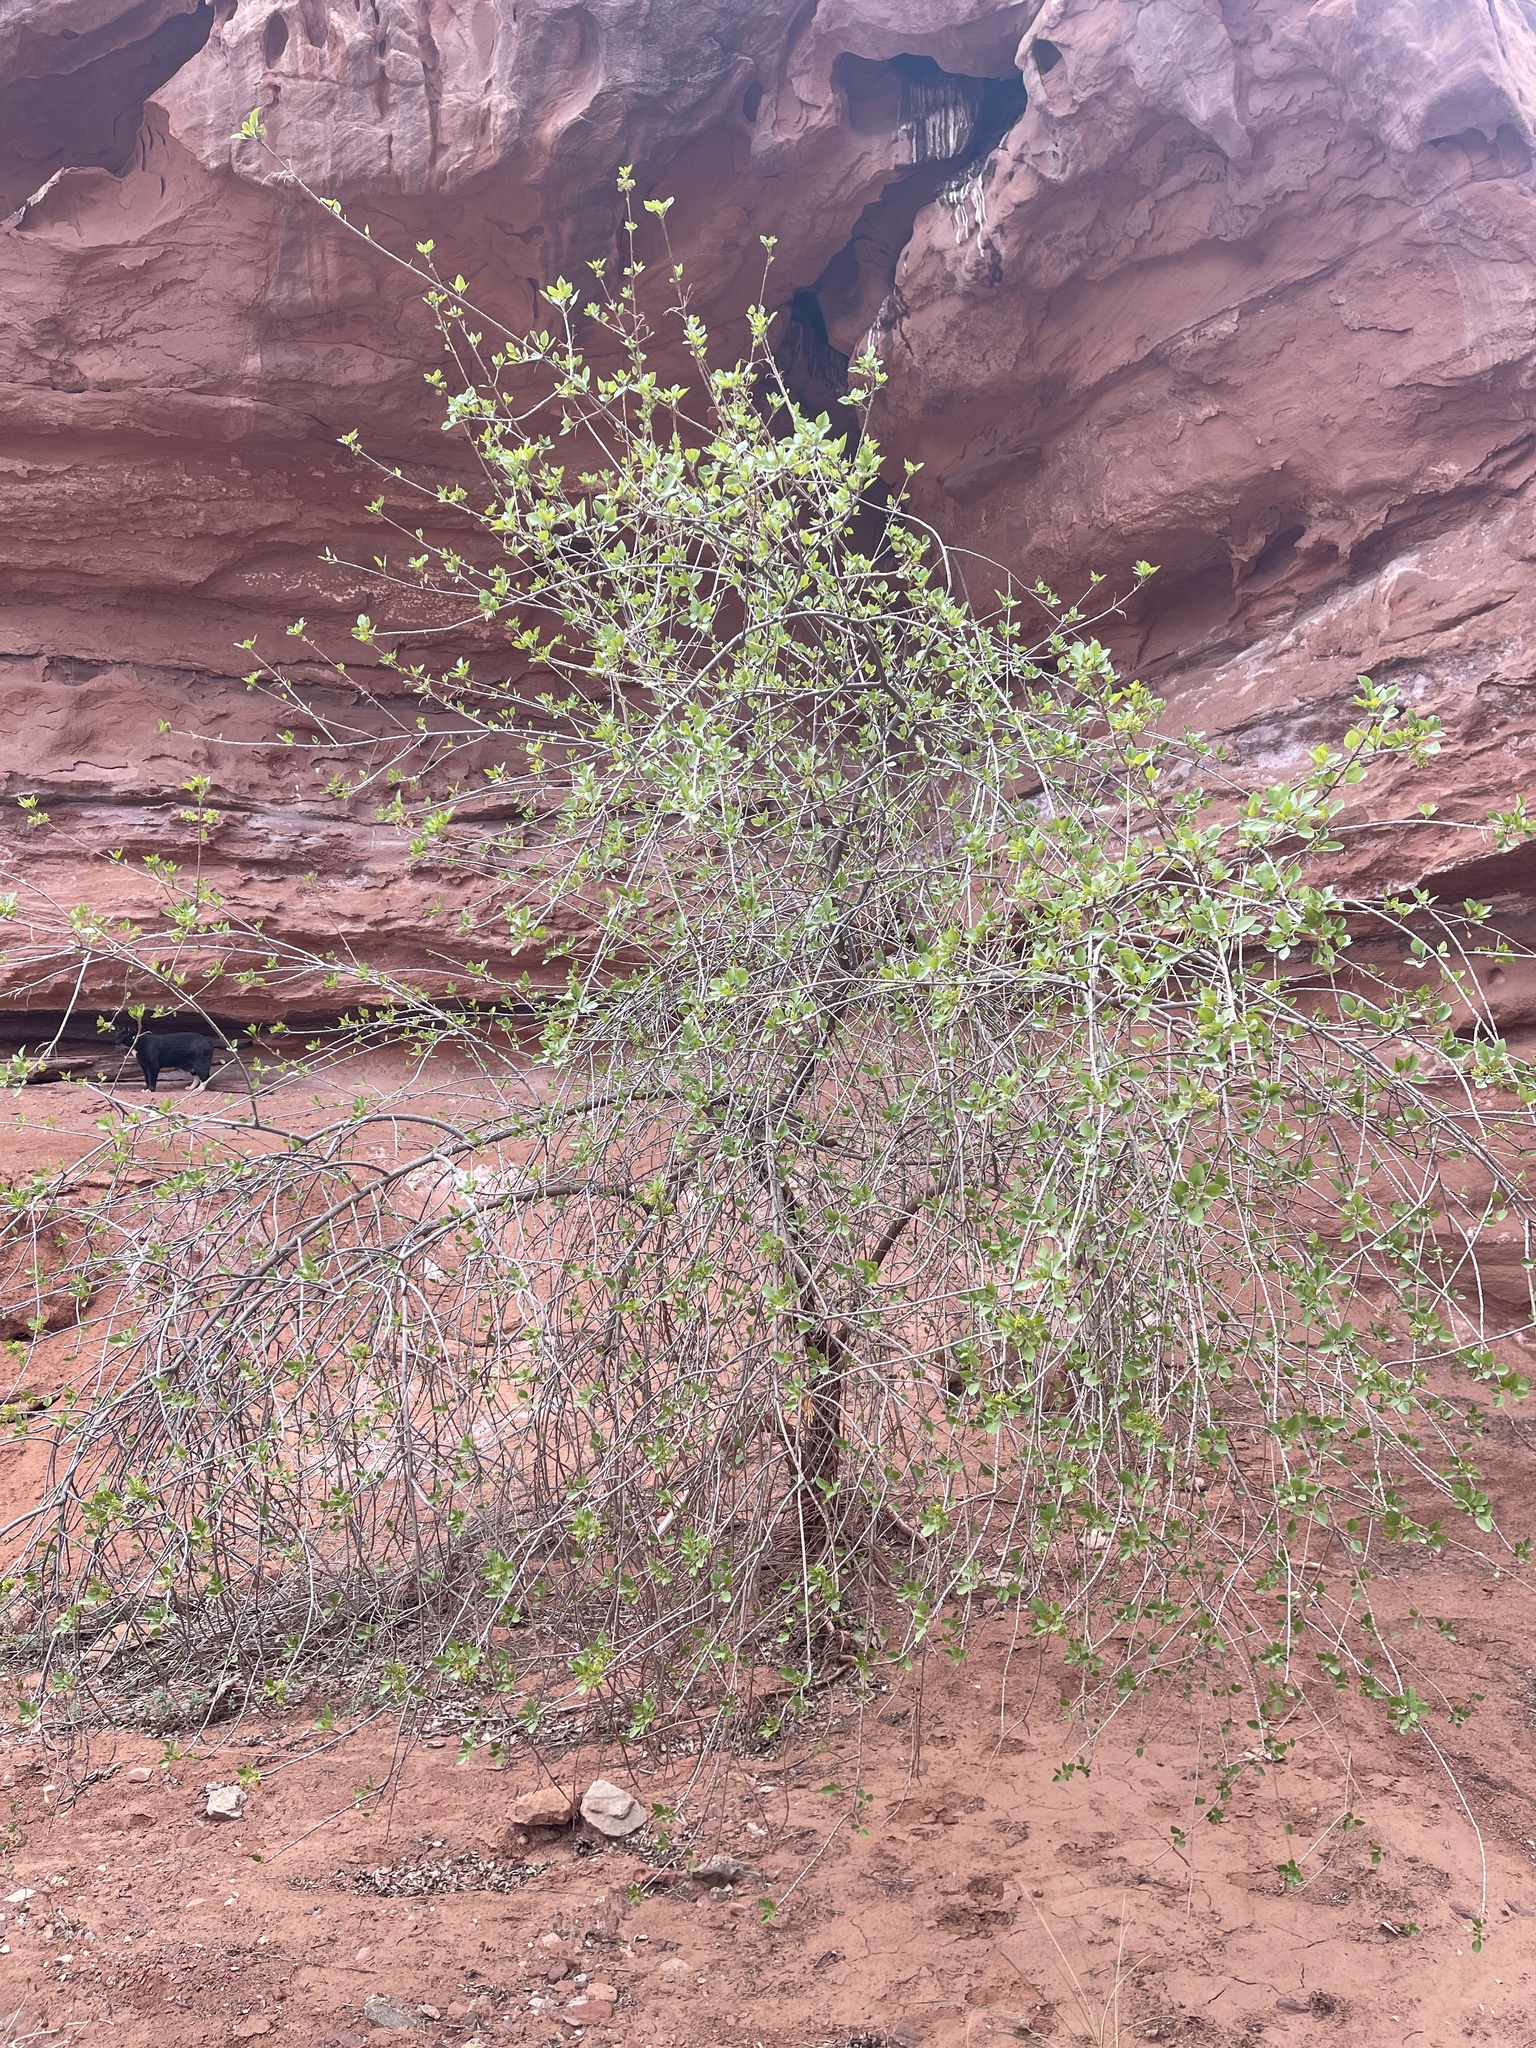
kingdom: Plantae
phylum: Tracheophyta
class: Magnoliopsida
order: Lamiales
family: Oleaceae
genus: Fraxinus
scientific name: Fraxinus anomala
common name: Utah ash
